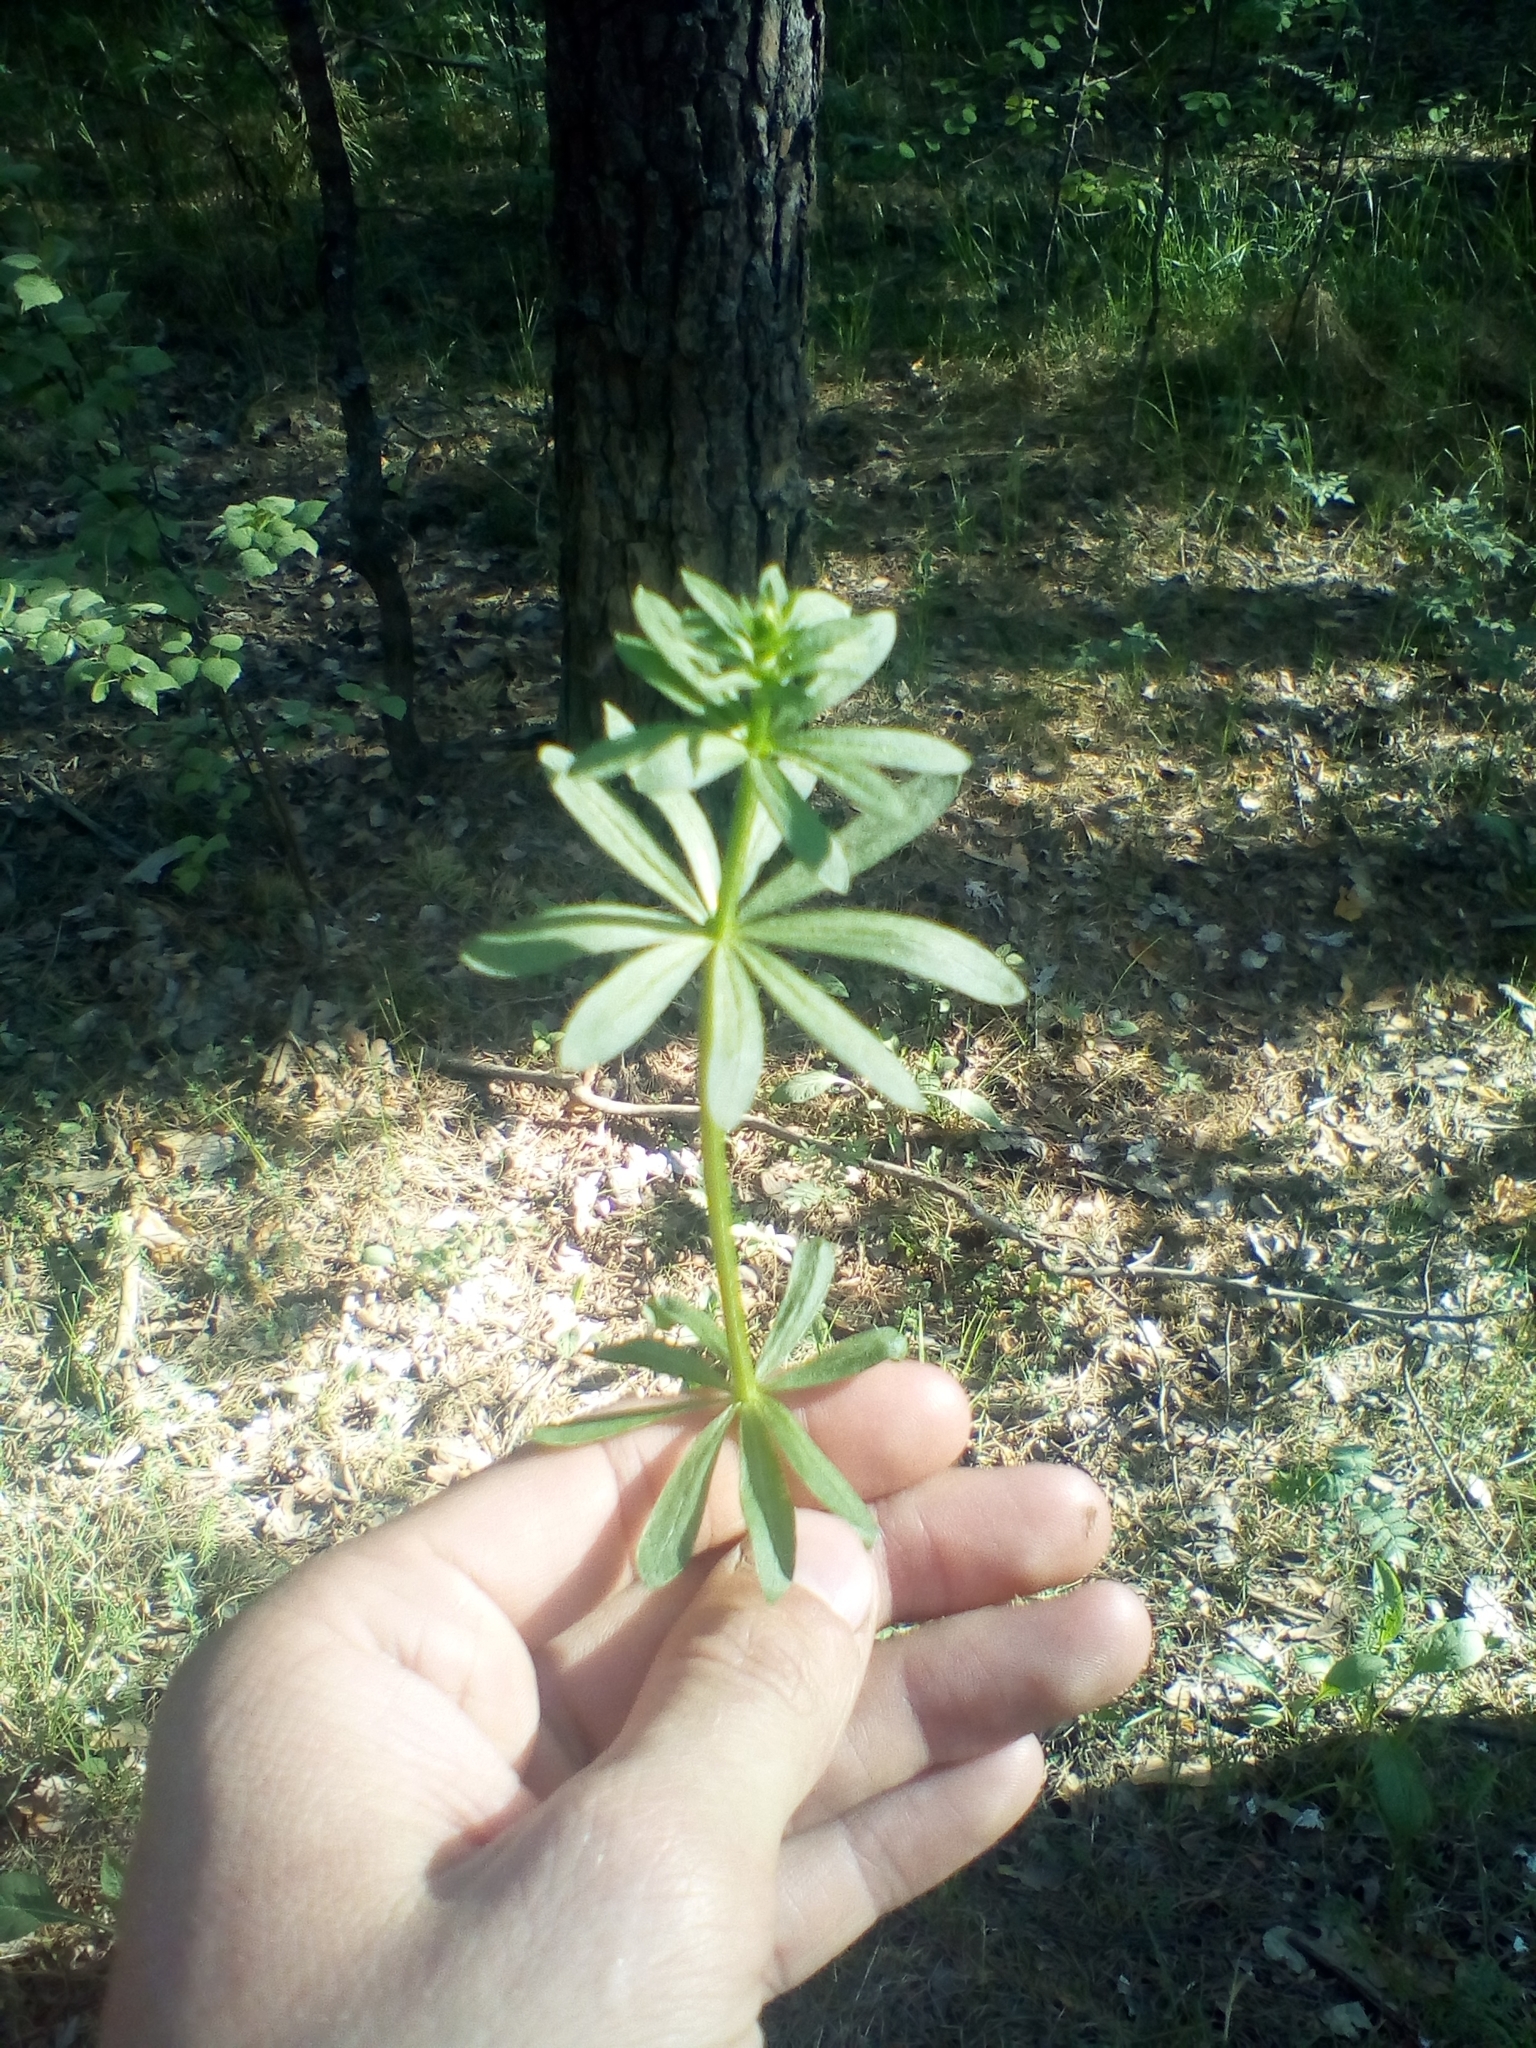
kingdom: Plantae
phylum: Tracheophyta
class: Magnoliopsida
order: Gentianales
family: Rubiaceae
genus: Galium
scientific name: Galium mollugo
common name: Hedge bedstraw
